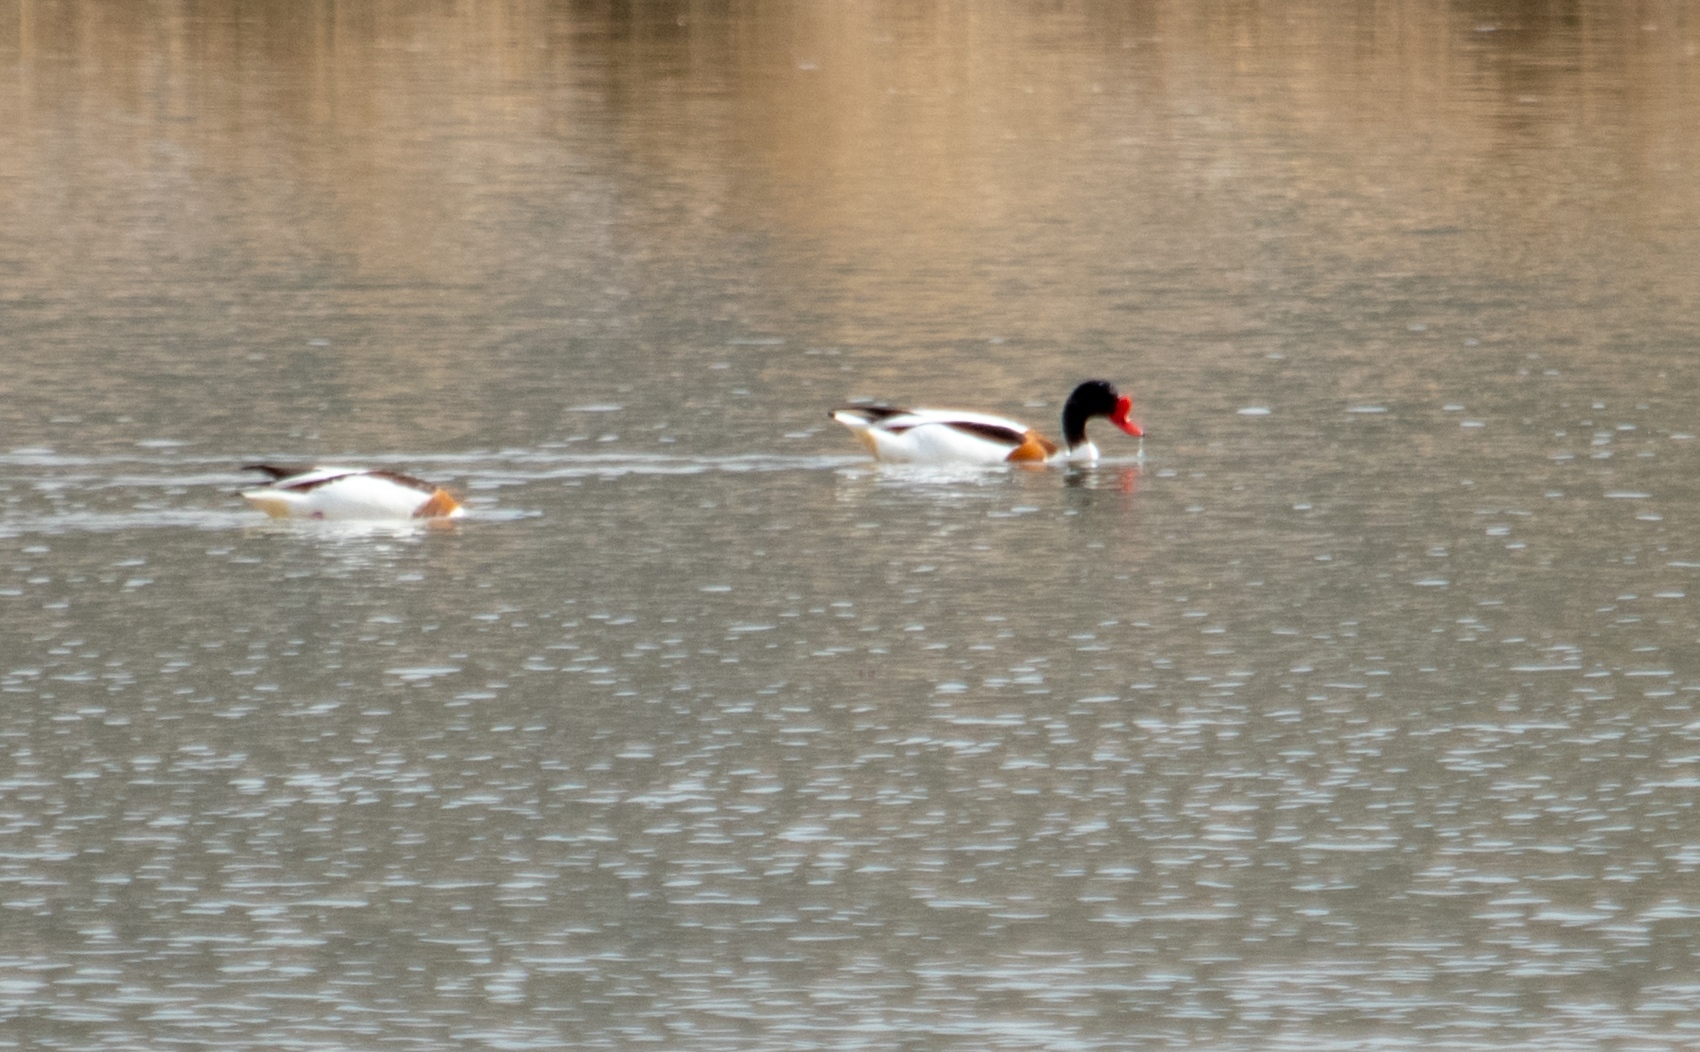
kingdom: Animalia
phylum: Chordata
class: Aves
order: Anseriformes
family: Anatidae
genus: Tadorna
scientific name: Tadorna tadorna
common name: Common shelduck
